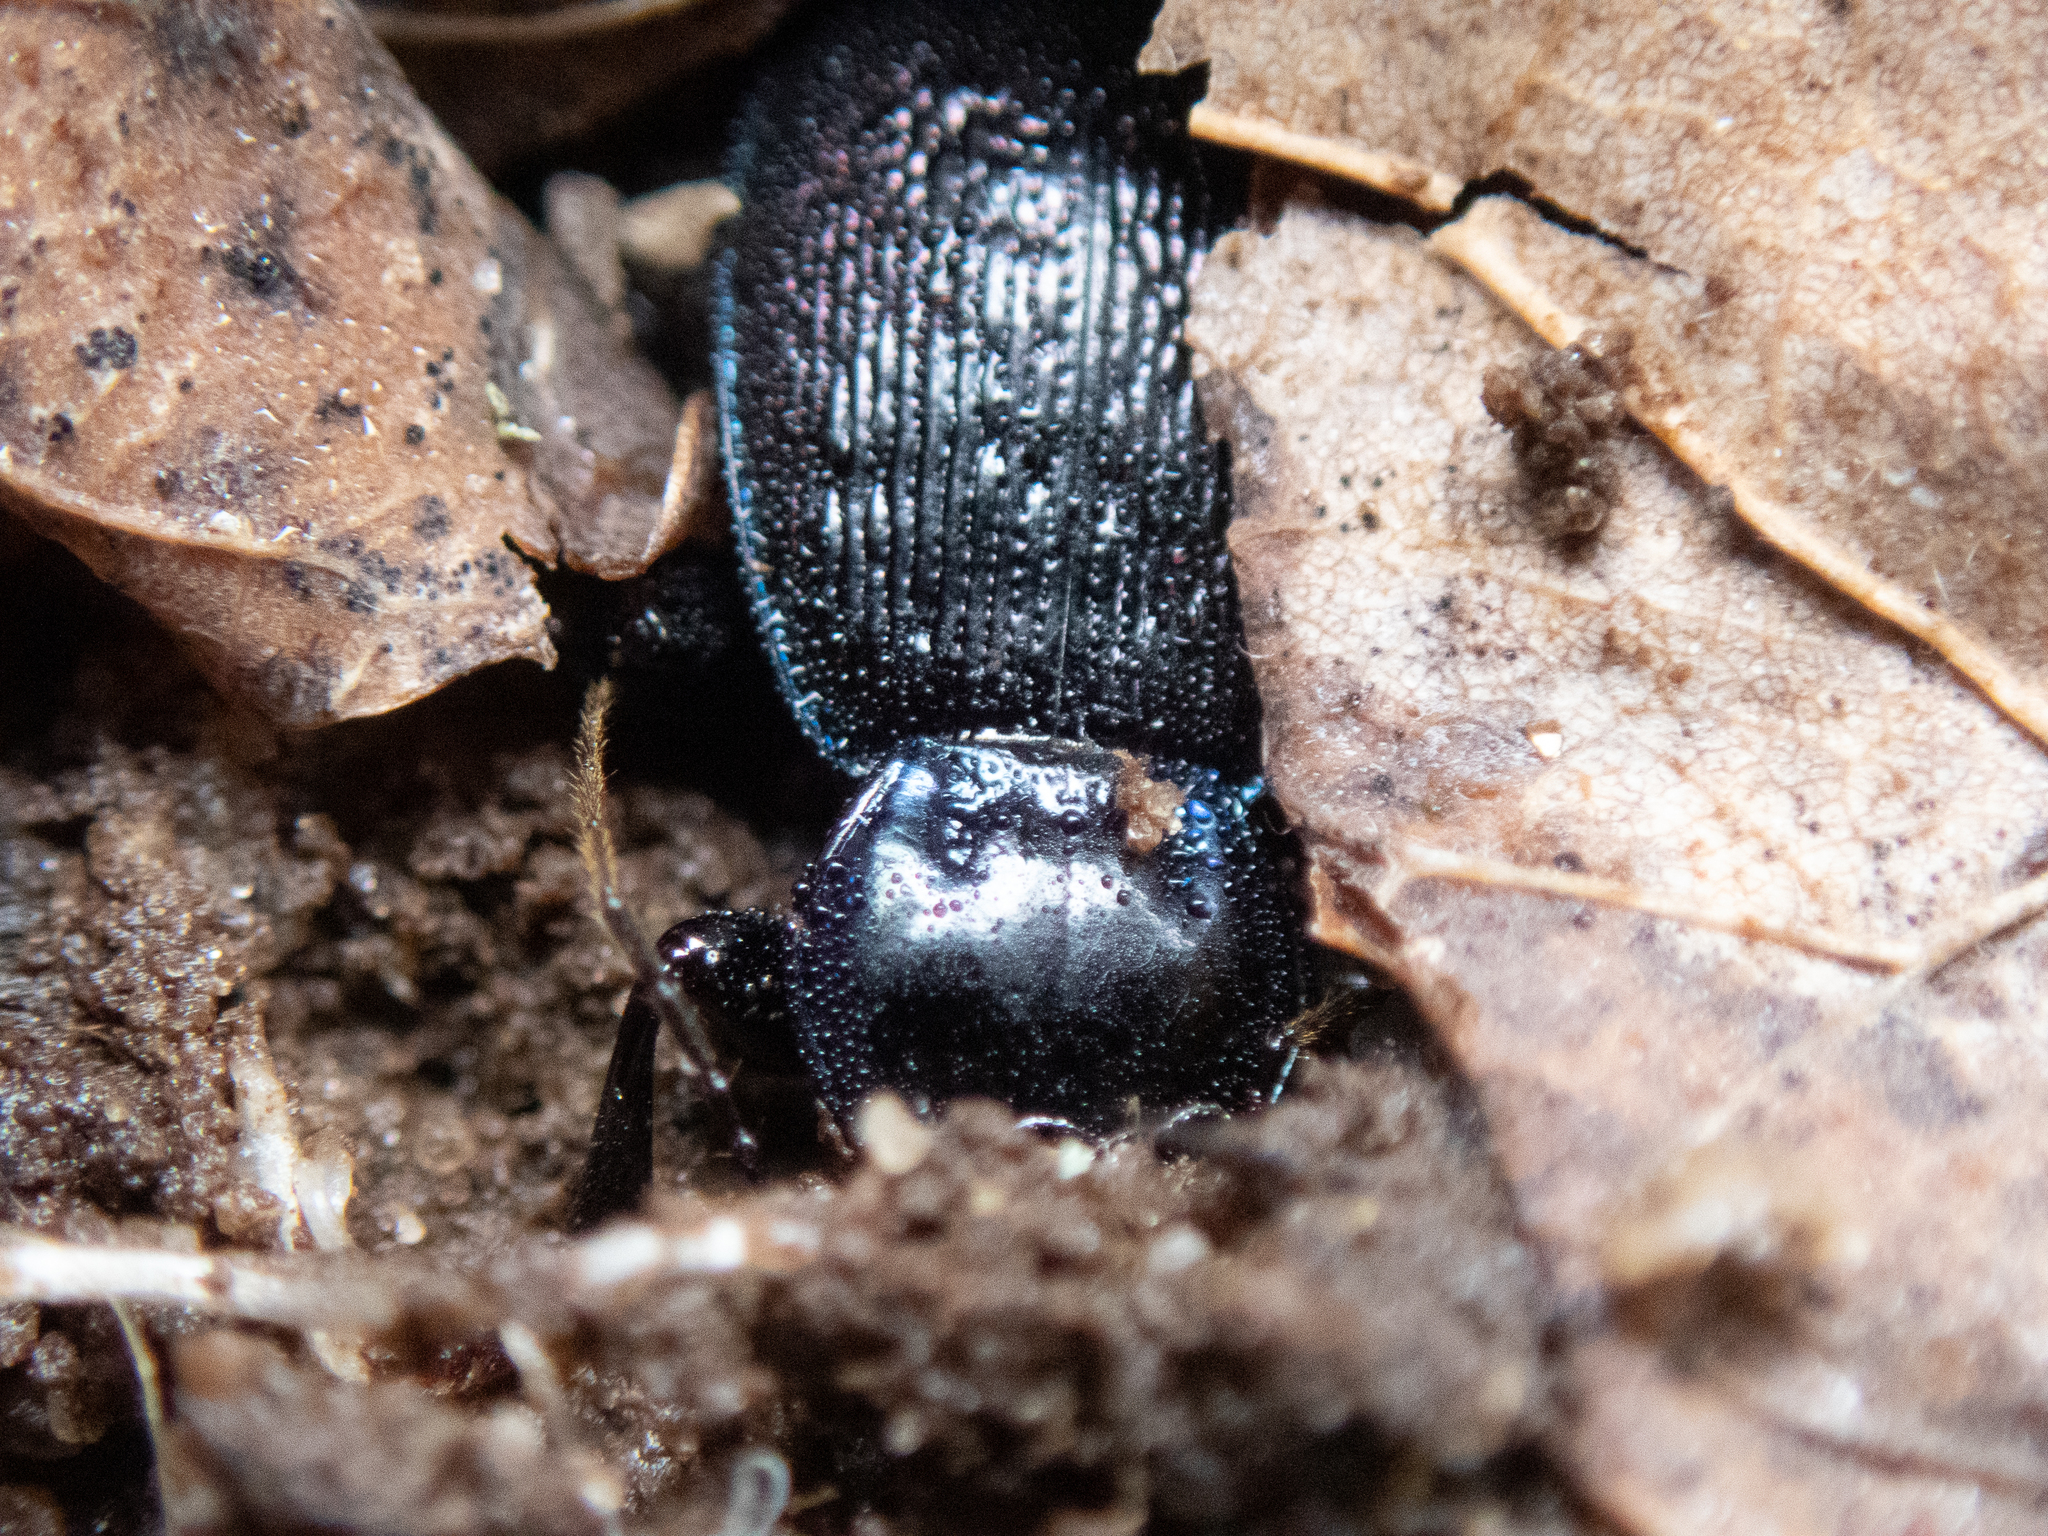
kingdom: Animalia
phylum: Arthropoda
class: Insecta
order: Coleoptera
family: Carabidae
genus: Sphaeroderus
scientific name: Sphaeroderus nitidicollis
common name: Polished snail-eating beetle
